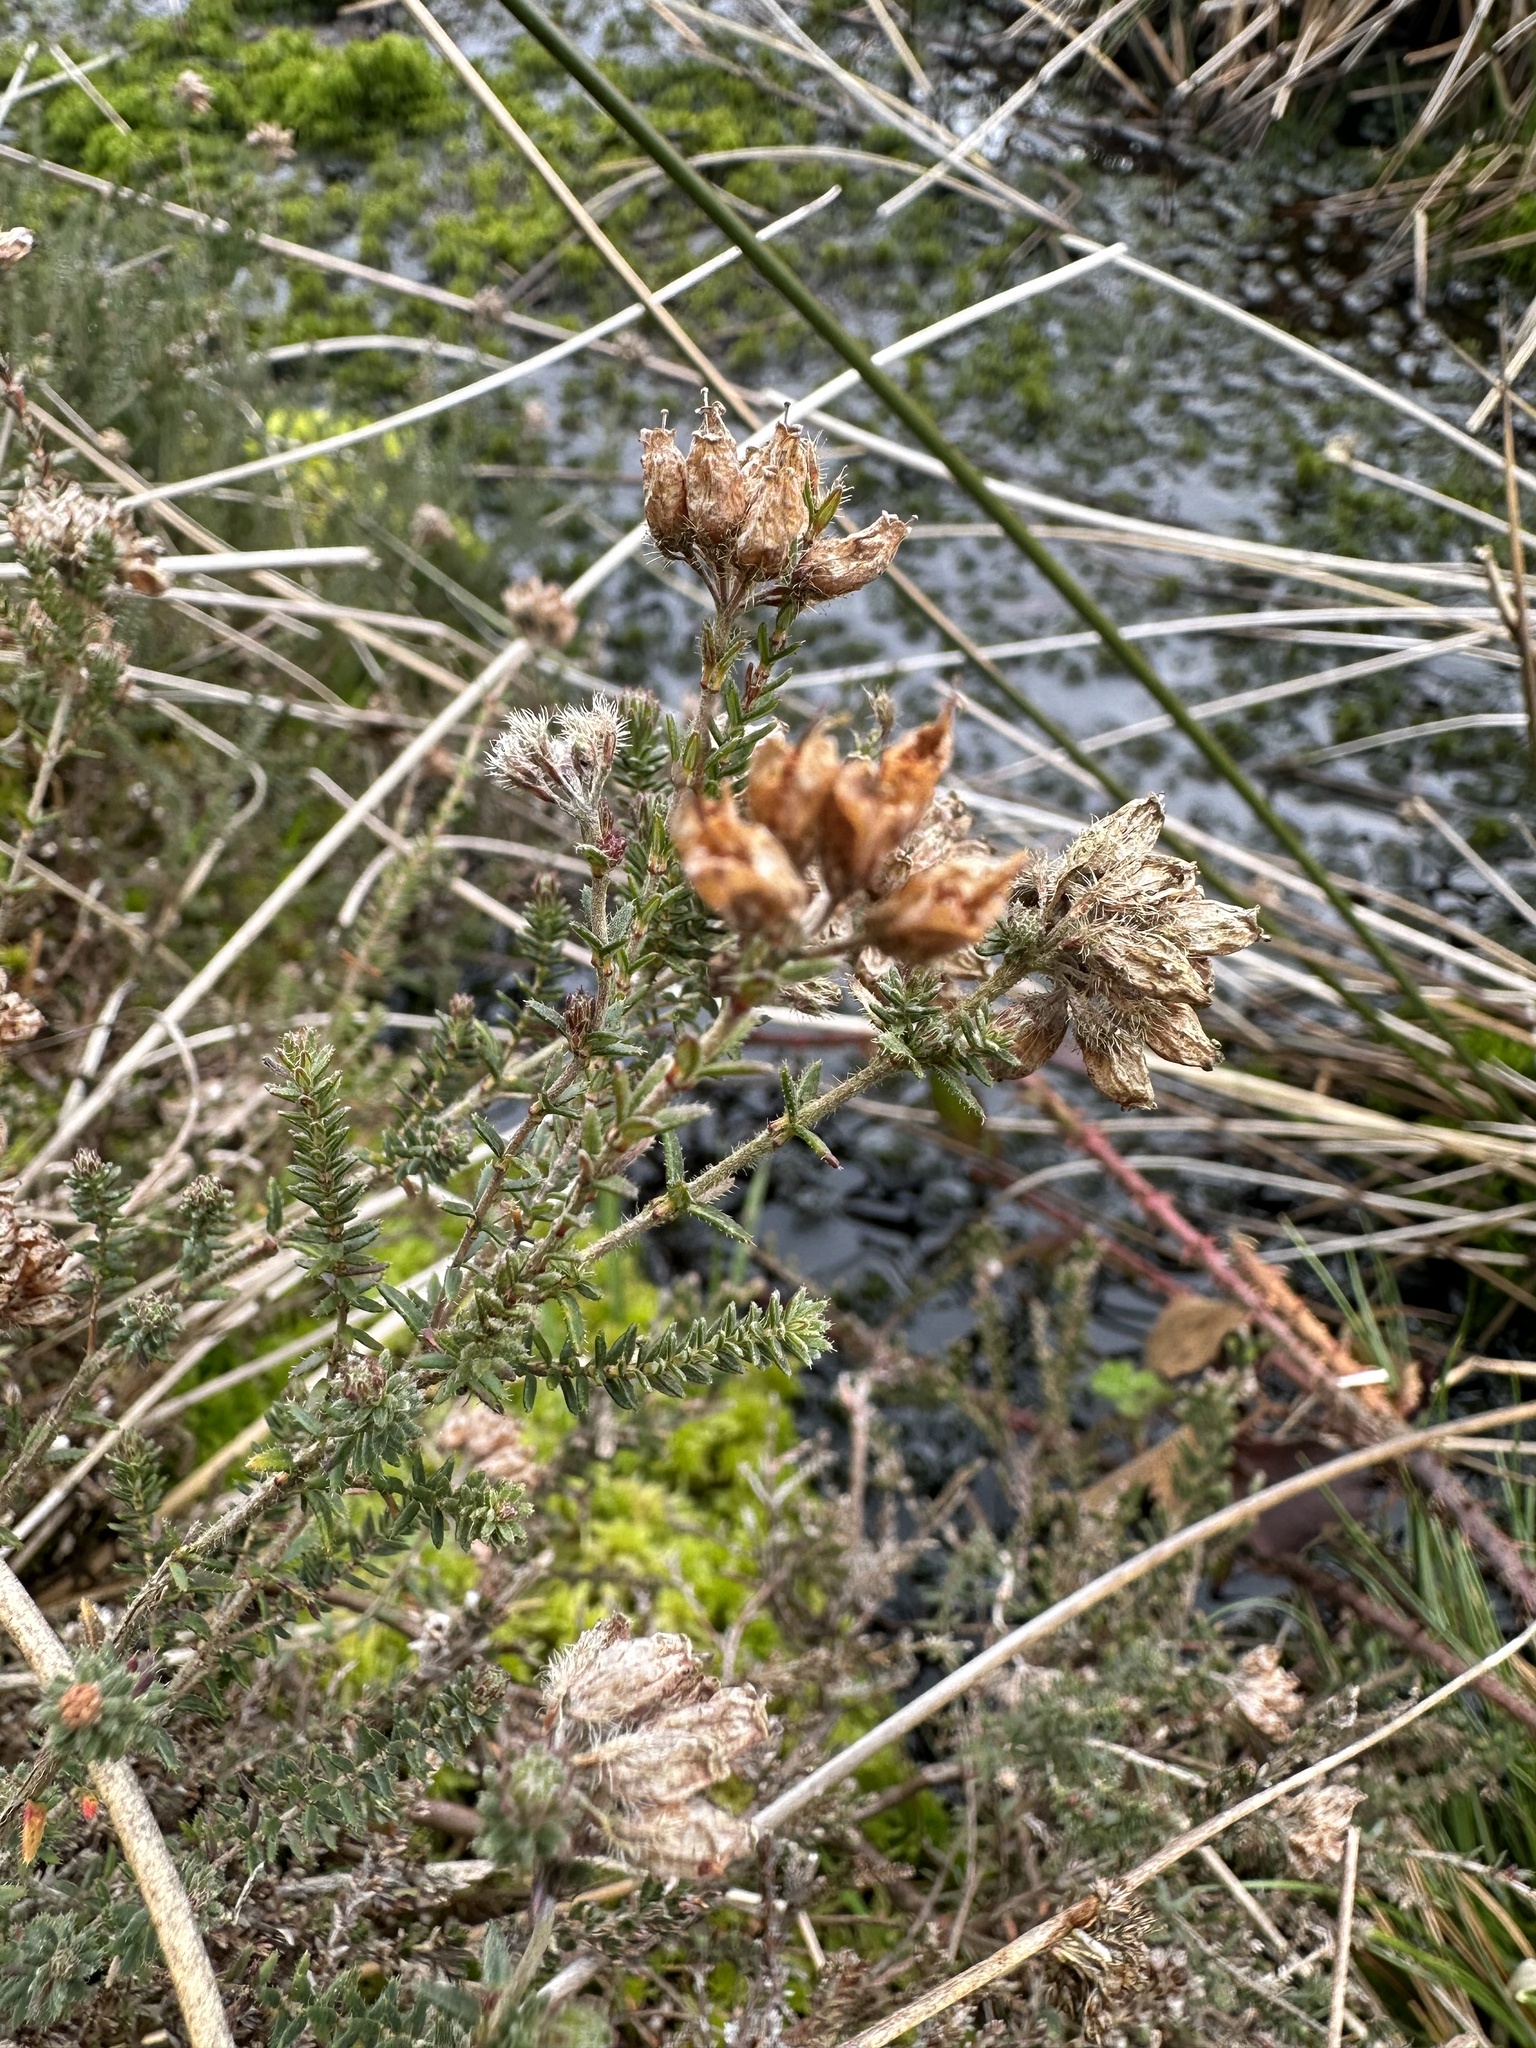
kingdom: Plantae
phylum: Tracheophyta
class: Magnoliopsida
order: Ericales
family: Ericaceae
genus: Erica
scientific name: Erica tetralix
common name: Cross-leaved heath
